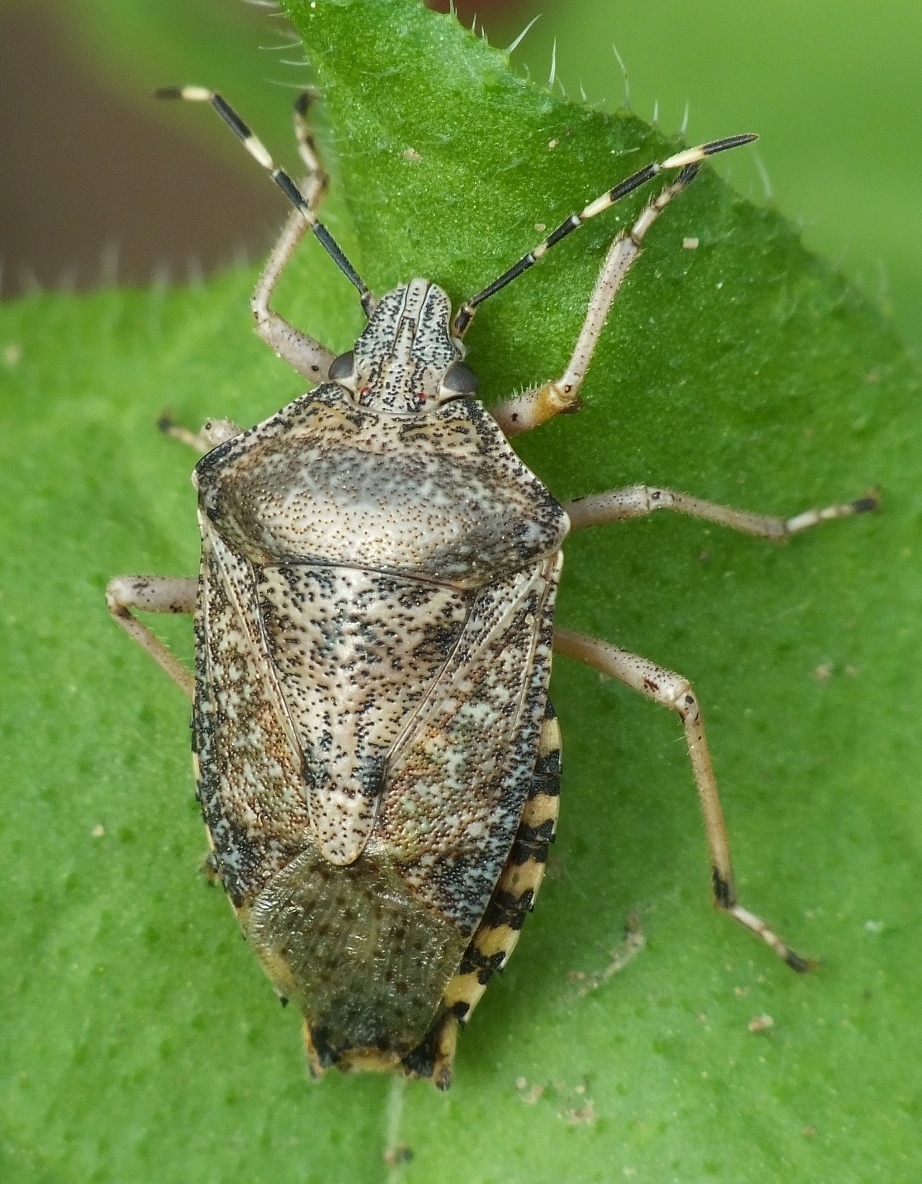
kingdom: Animalia
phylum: Arthropoda
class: Insecta
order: Hemiptera
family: Pentatomidae
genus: Rhaphigaster
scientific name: Rhaphigaster nebulosa
